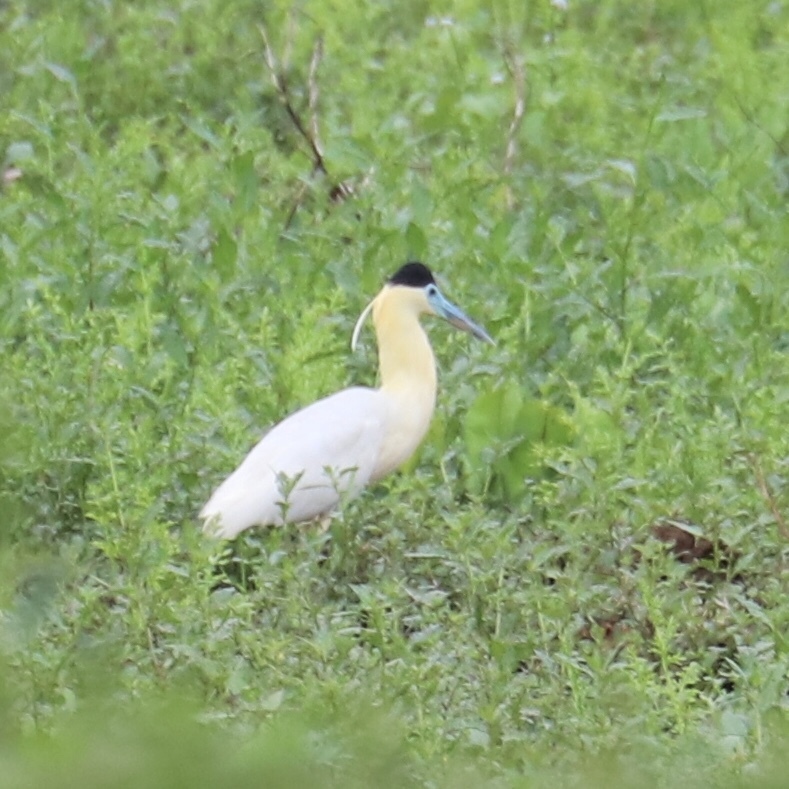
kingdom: Animalia
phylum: Chordata
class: Aves
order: Pelecaniformes
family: Ardeidae
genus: Pilherodius
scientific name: Pilherodius pileatus
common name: Capped heron
